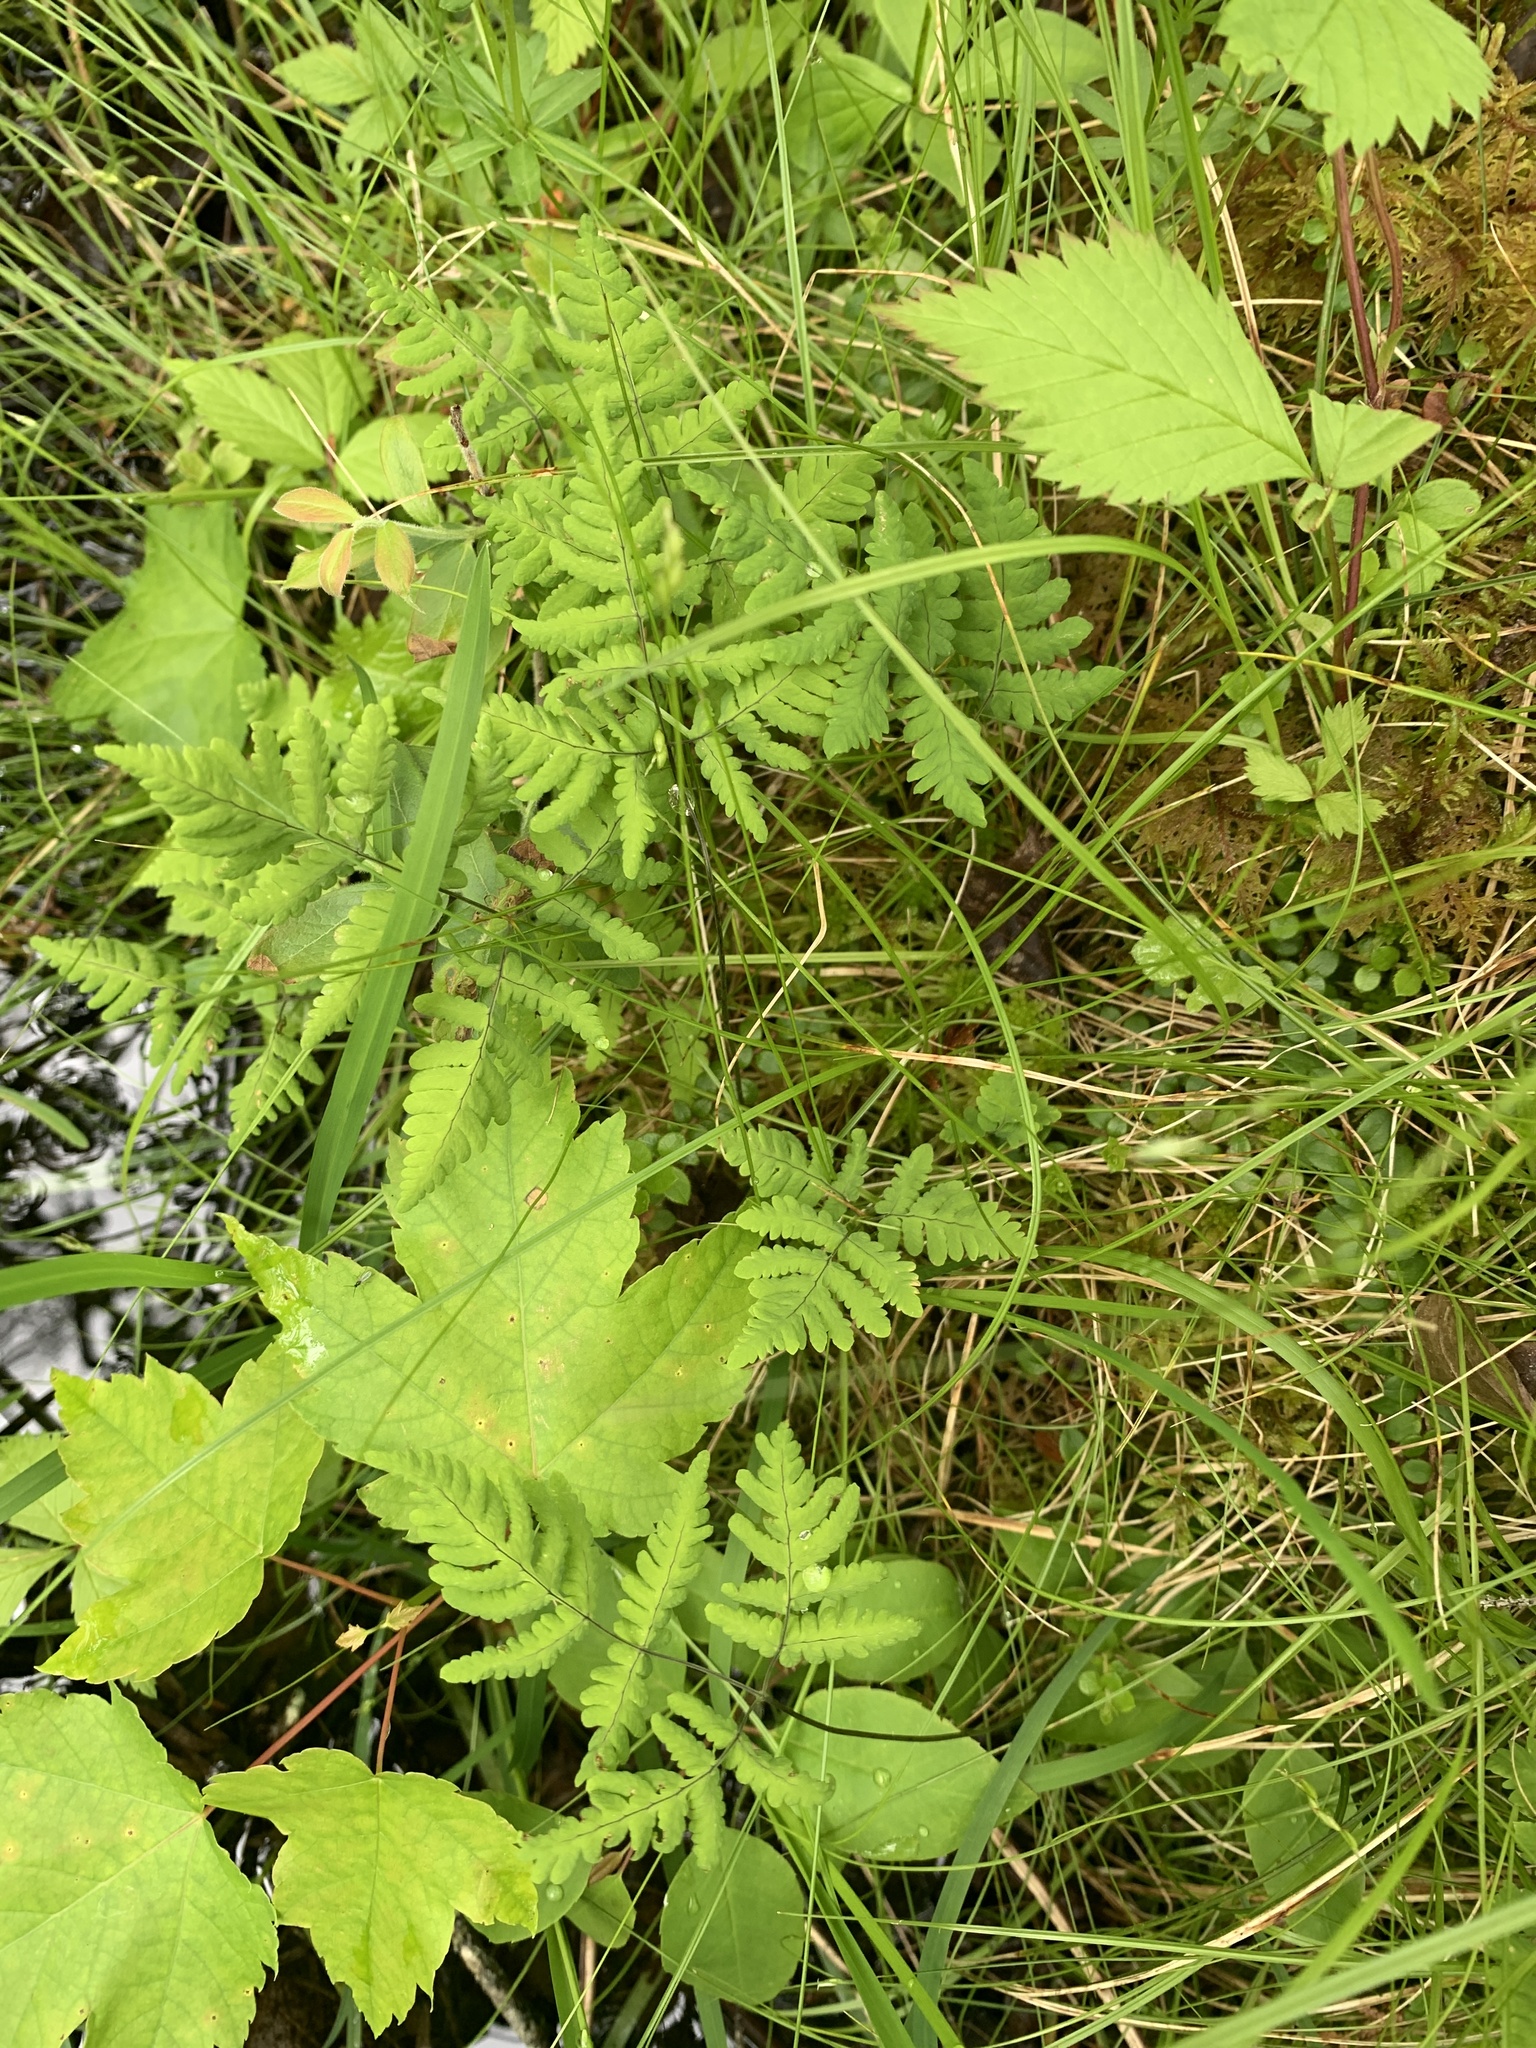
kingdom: Plantae
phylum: Tracheophyta
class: Polypodiopsida
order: Polypodiales
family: Cystopteridaceae
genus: Gymnocarpium
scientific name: Gymnocarpium dryopteris
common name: Oak fern
